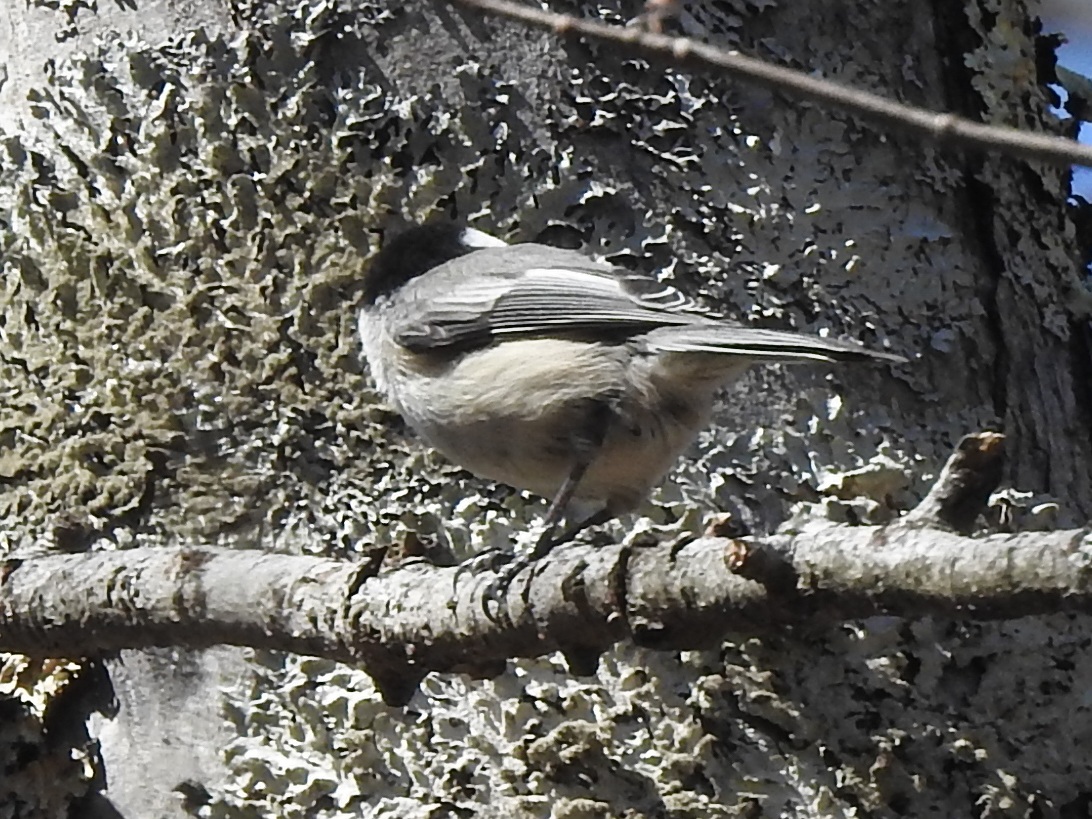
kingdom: Animalia
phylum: Chordata
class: Aves
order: Passeriformes
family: Paridae
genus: Poecile
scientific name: Poecile atricapillus
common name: Black-capped chickadee
